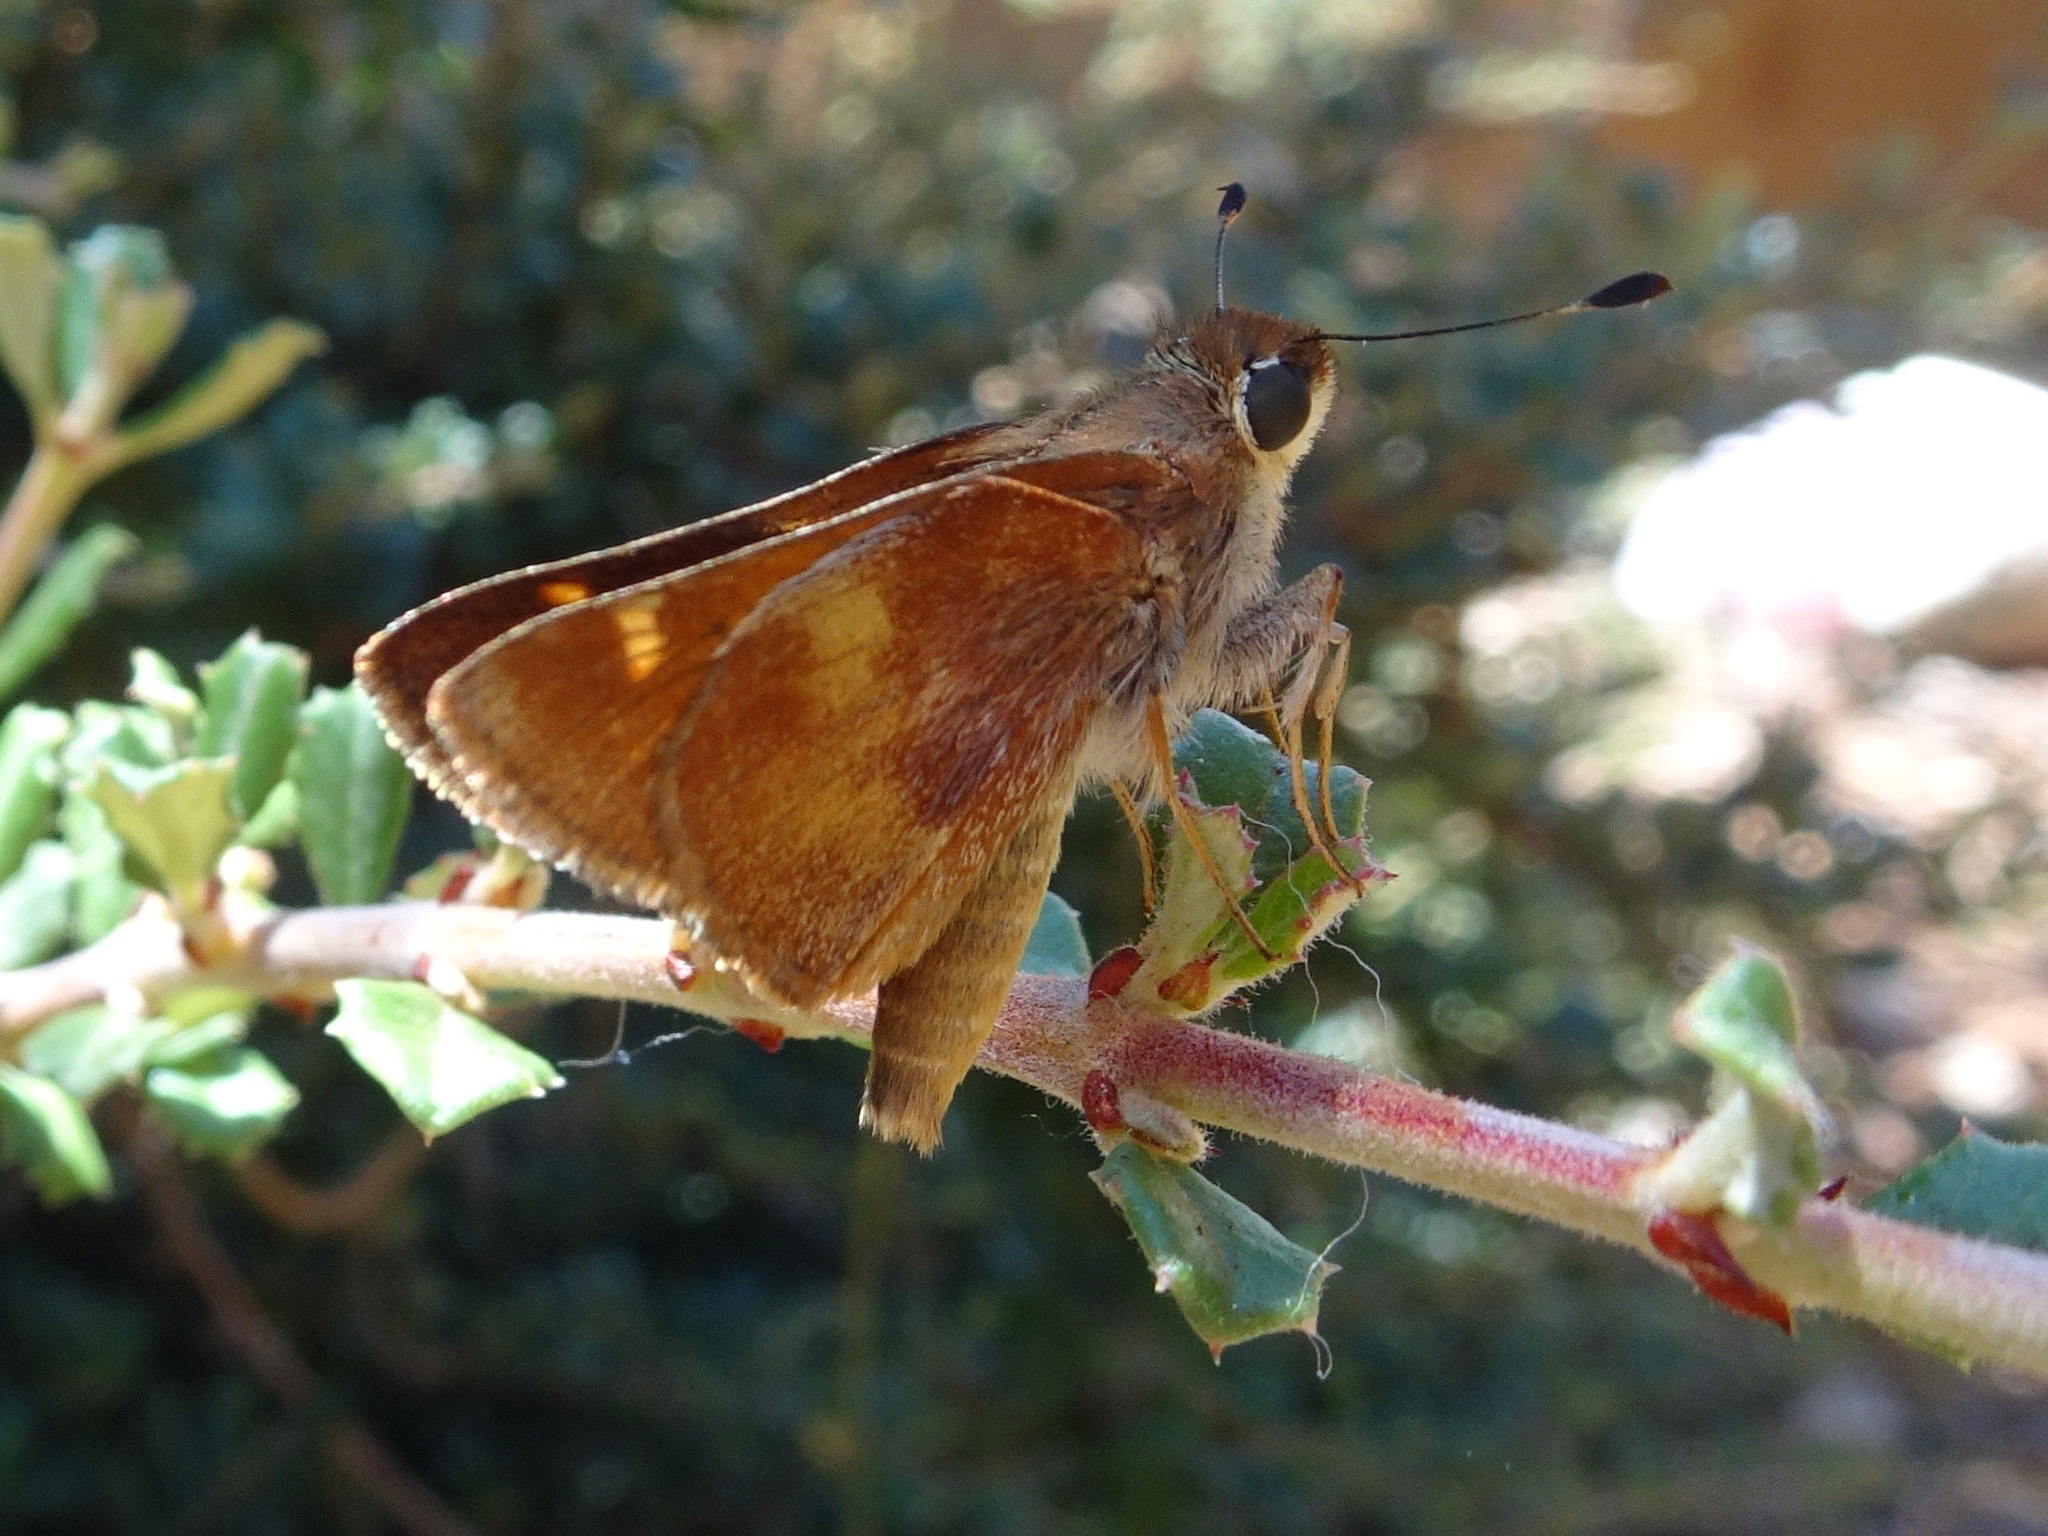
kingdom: Animalia
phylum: Arthropoda
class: Insecta
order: Lepidoptera
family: Hesperiidae
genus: Lon
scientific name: Lon melane
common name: Umber skipper
